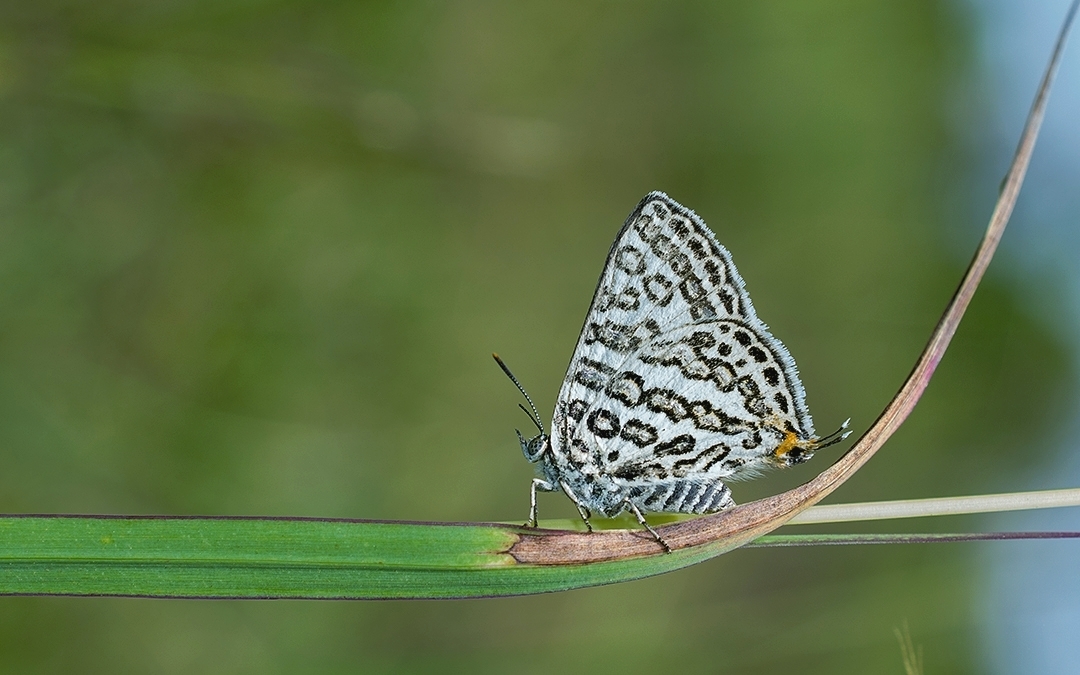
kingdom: Animalia
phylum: Arthropoda
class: Insecta
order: Lepidoptera
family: Lycaenidae
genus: Aphnaeus
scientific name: Aphnaeus lilacinus
